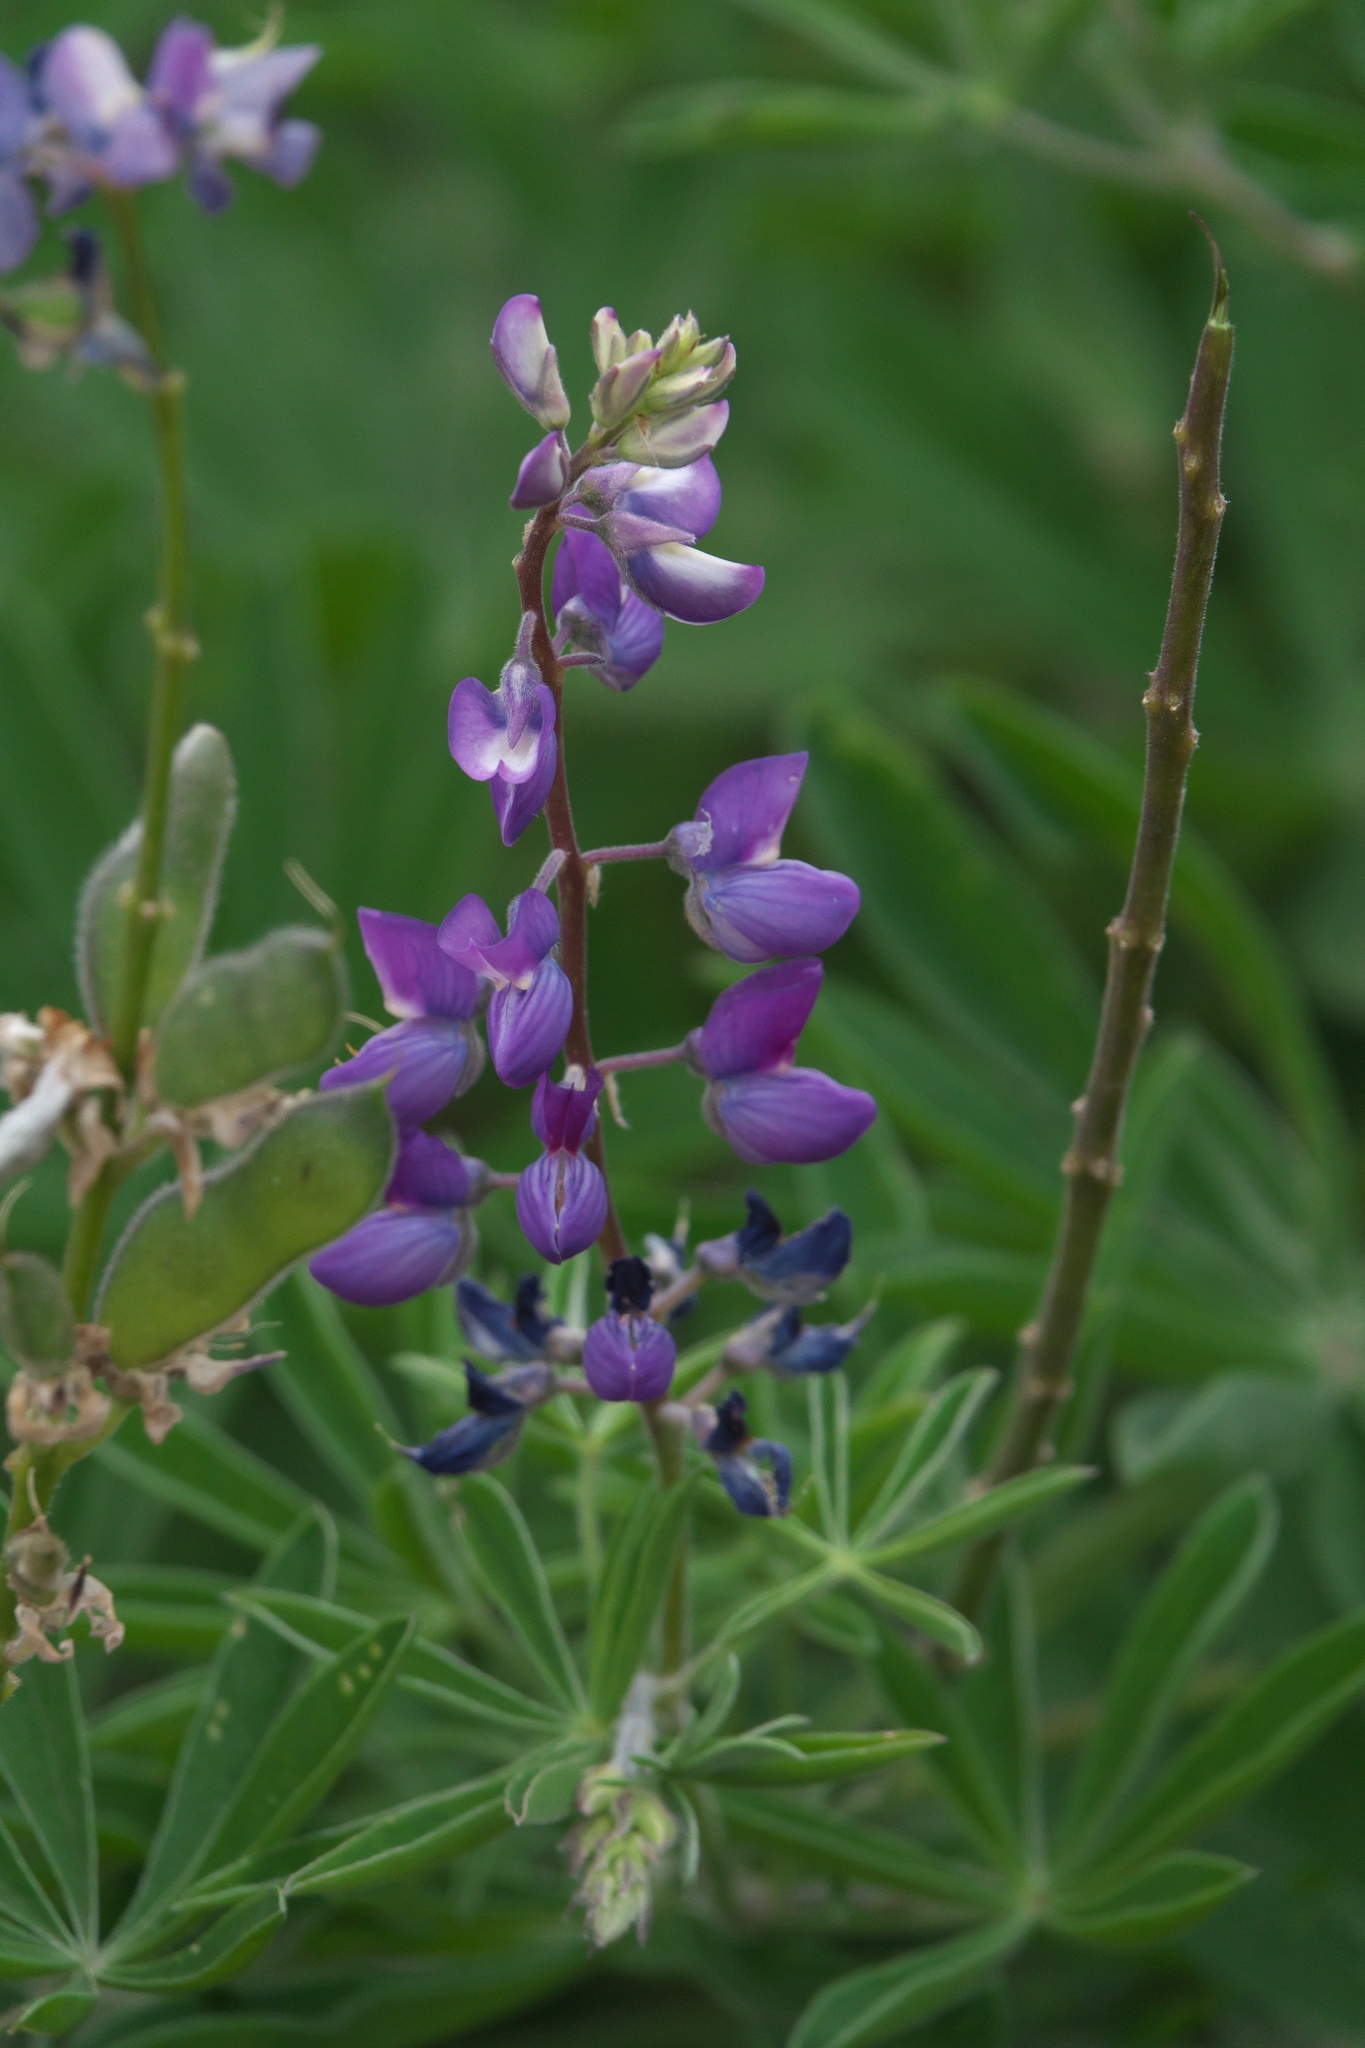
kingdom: Plantae
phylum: Tracheophyta
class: Magnoliopsida
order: Fabales
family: Fabaceae
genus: Lupinus
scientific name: Lupinus latifolius
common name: Broad-leaved lupine
